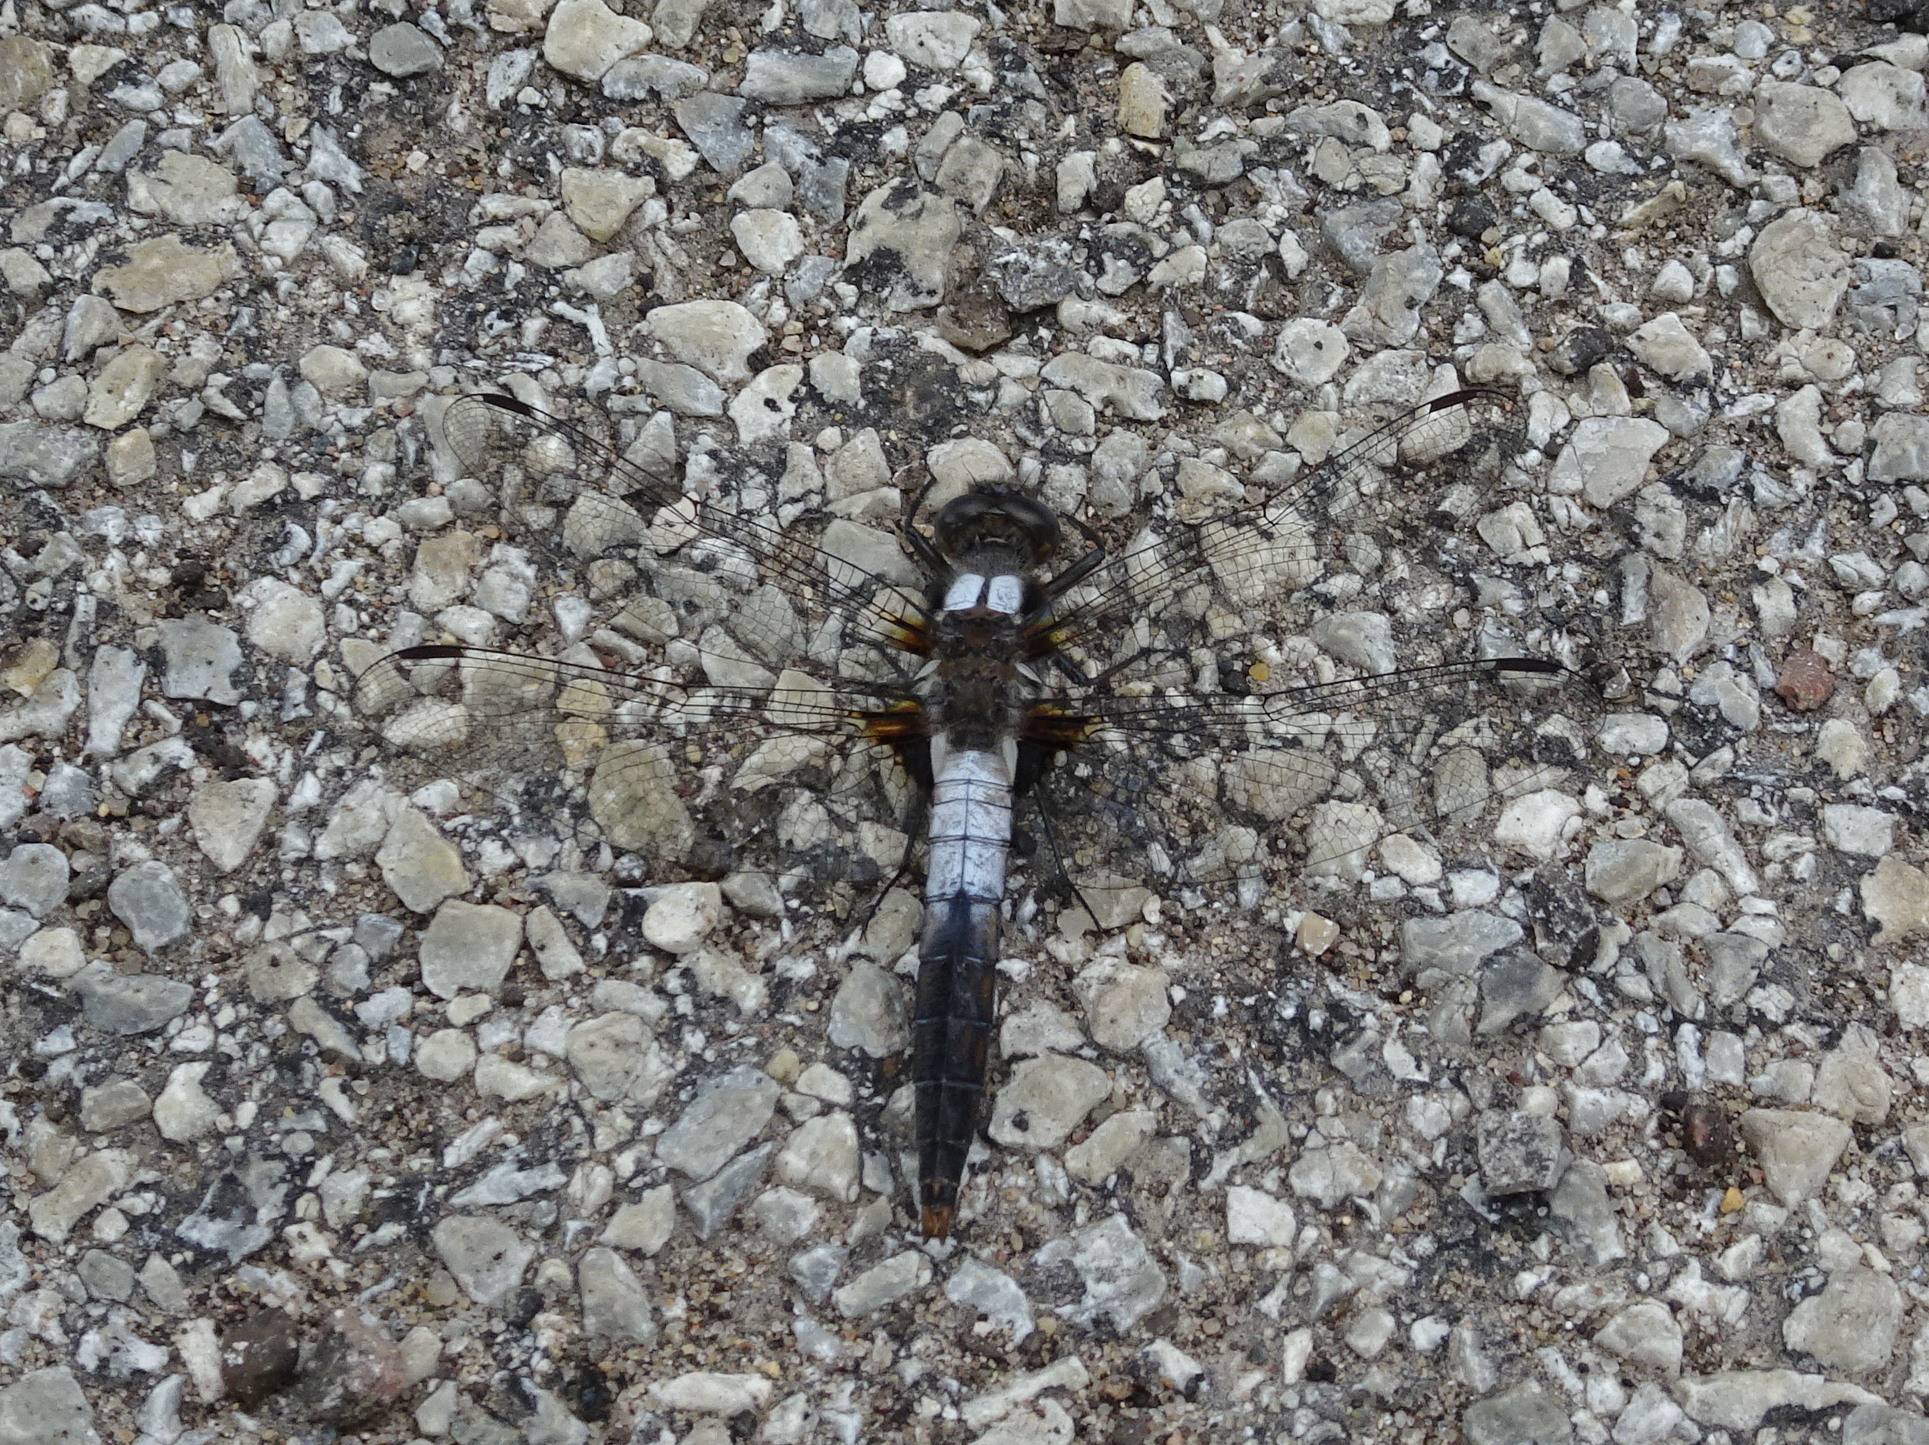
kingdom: Animalia
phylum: Arthropoda
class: Insecta
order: Odonata
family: Libellulidae
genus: Ladona
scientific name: Ladona julia
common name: Chalk-fronted corporal
